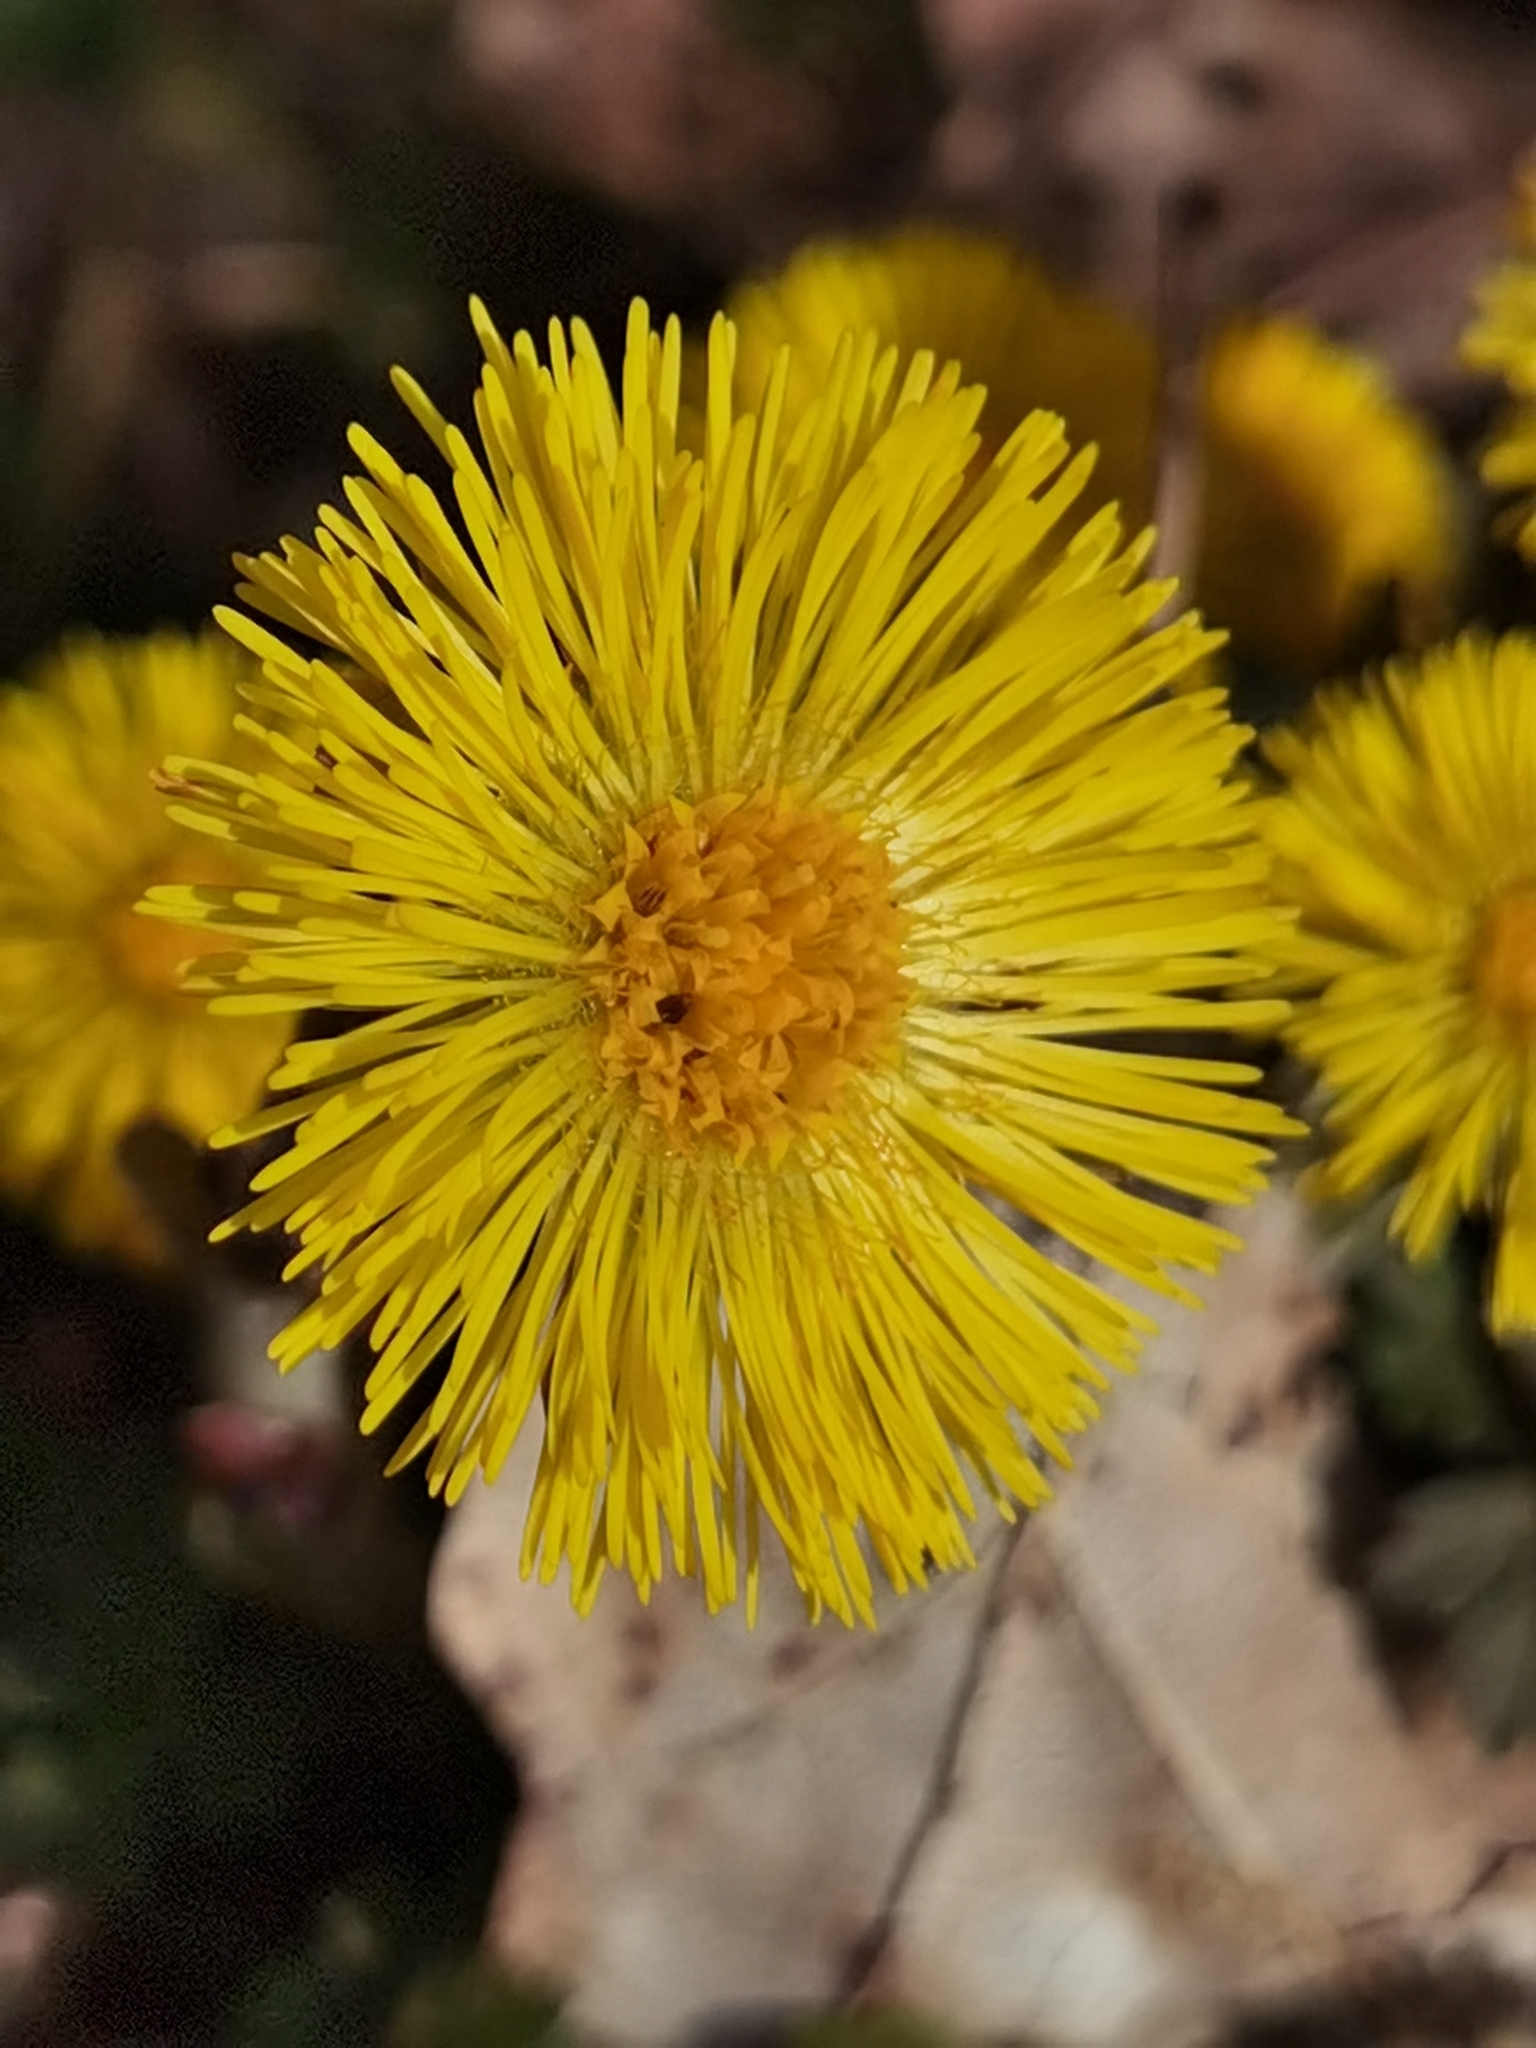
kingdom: Plantae
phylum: Tracheophyta
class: Magnoliopsida
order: Asterales
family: Asteraceae
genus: Tussilago
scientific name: Tussilago farfara
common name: Coltsfoot
